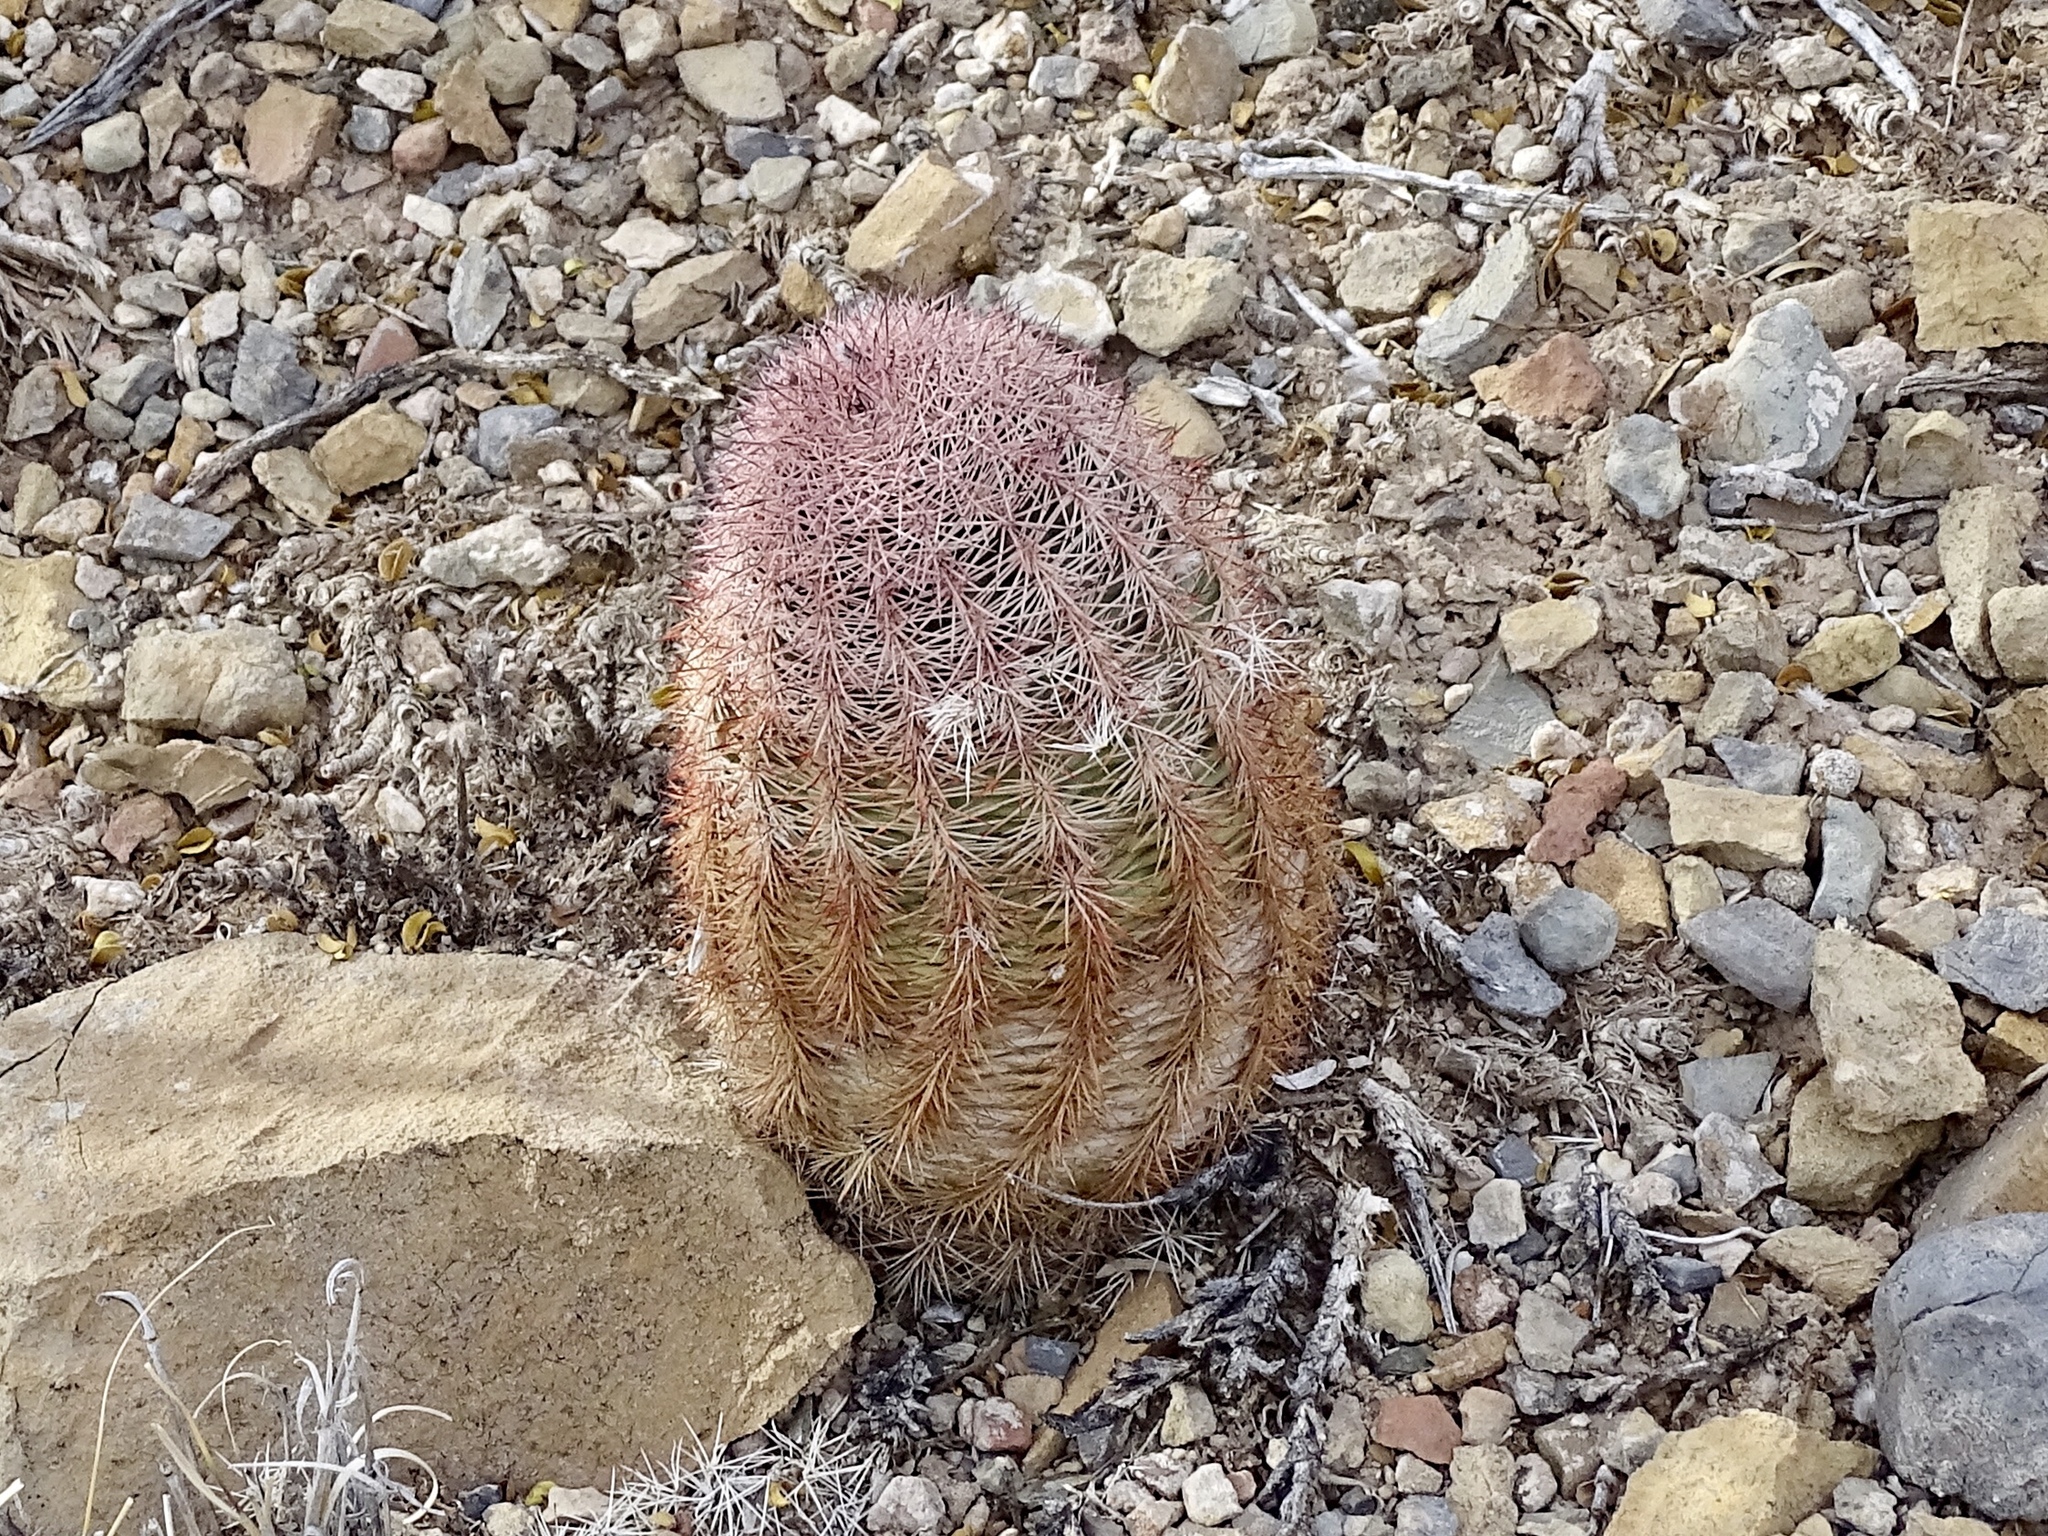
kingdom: Plantae
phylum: Tracheophyta
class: Magnoliopsida
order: Caryophyllales
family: Cactaceae
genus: Echinocereus
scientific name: Echinocereus dasyacanthus
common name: Spiny hedgehog cactus
